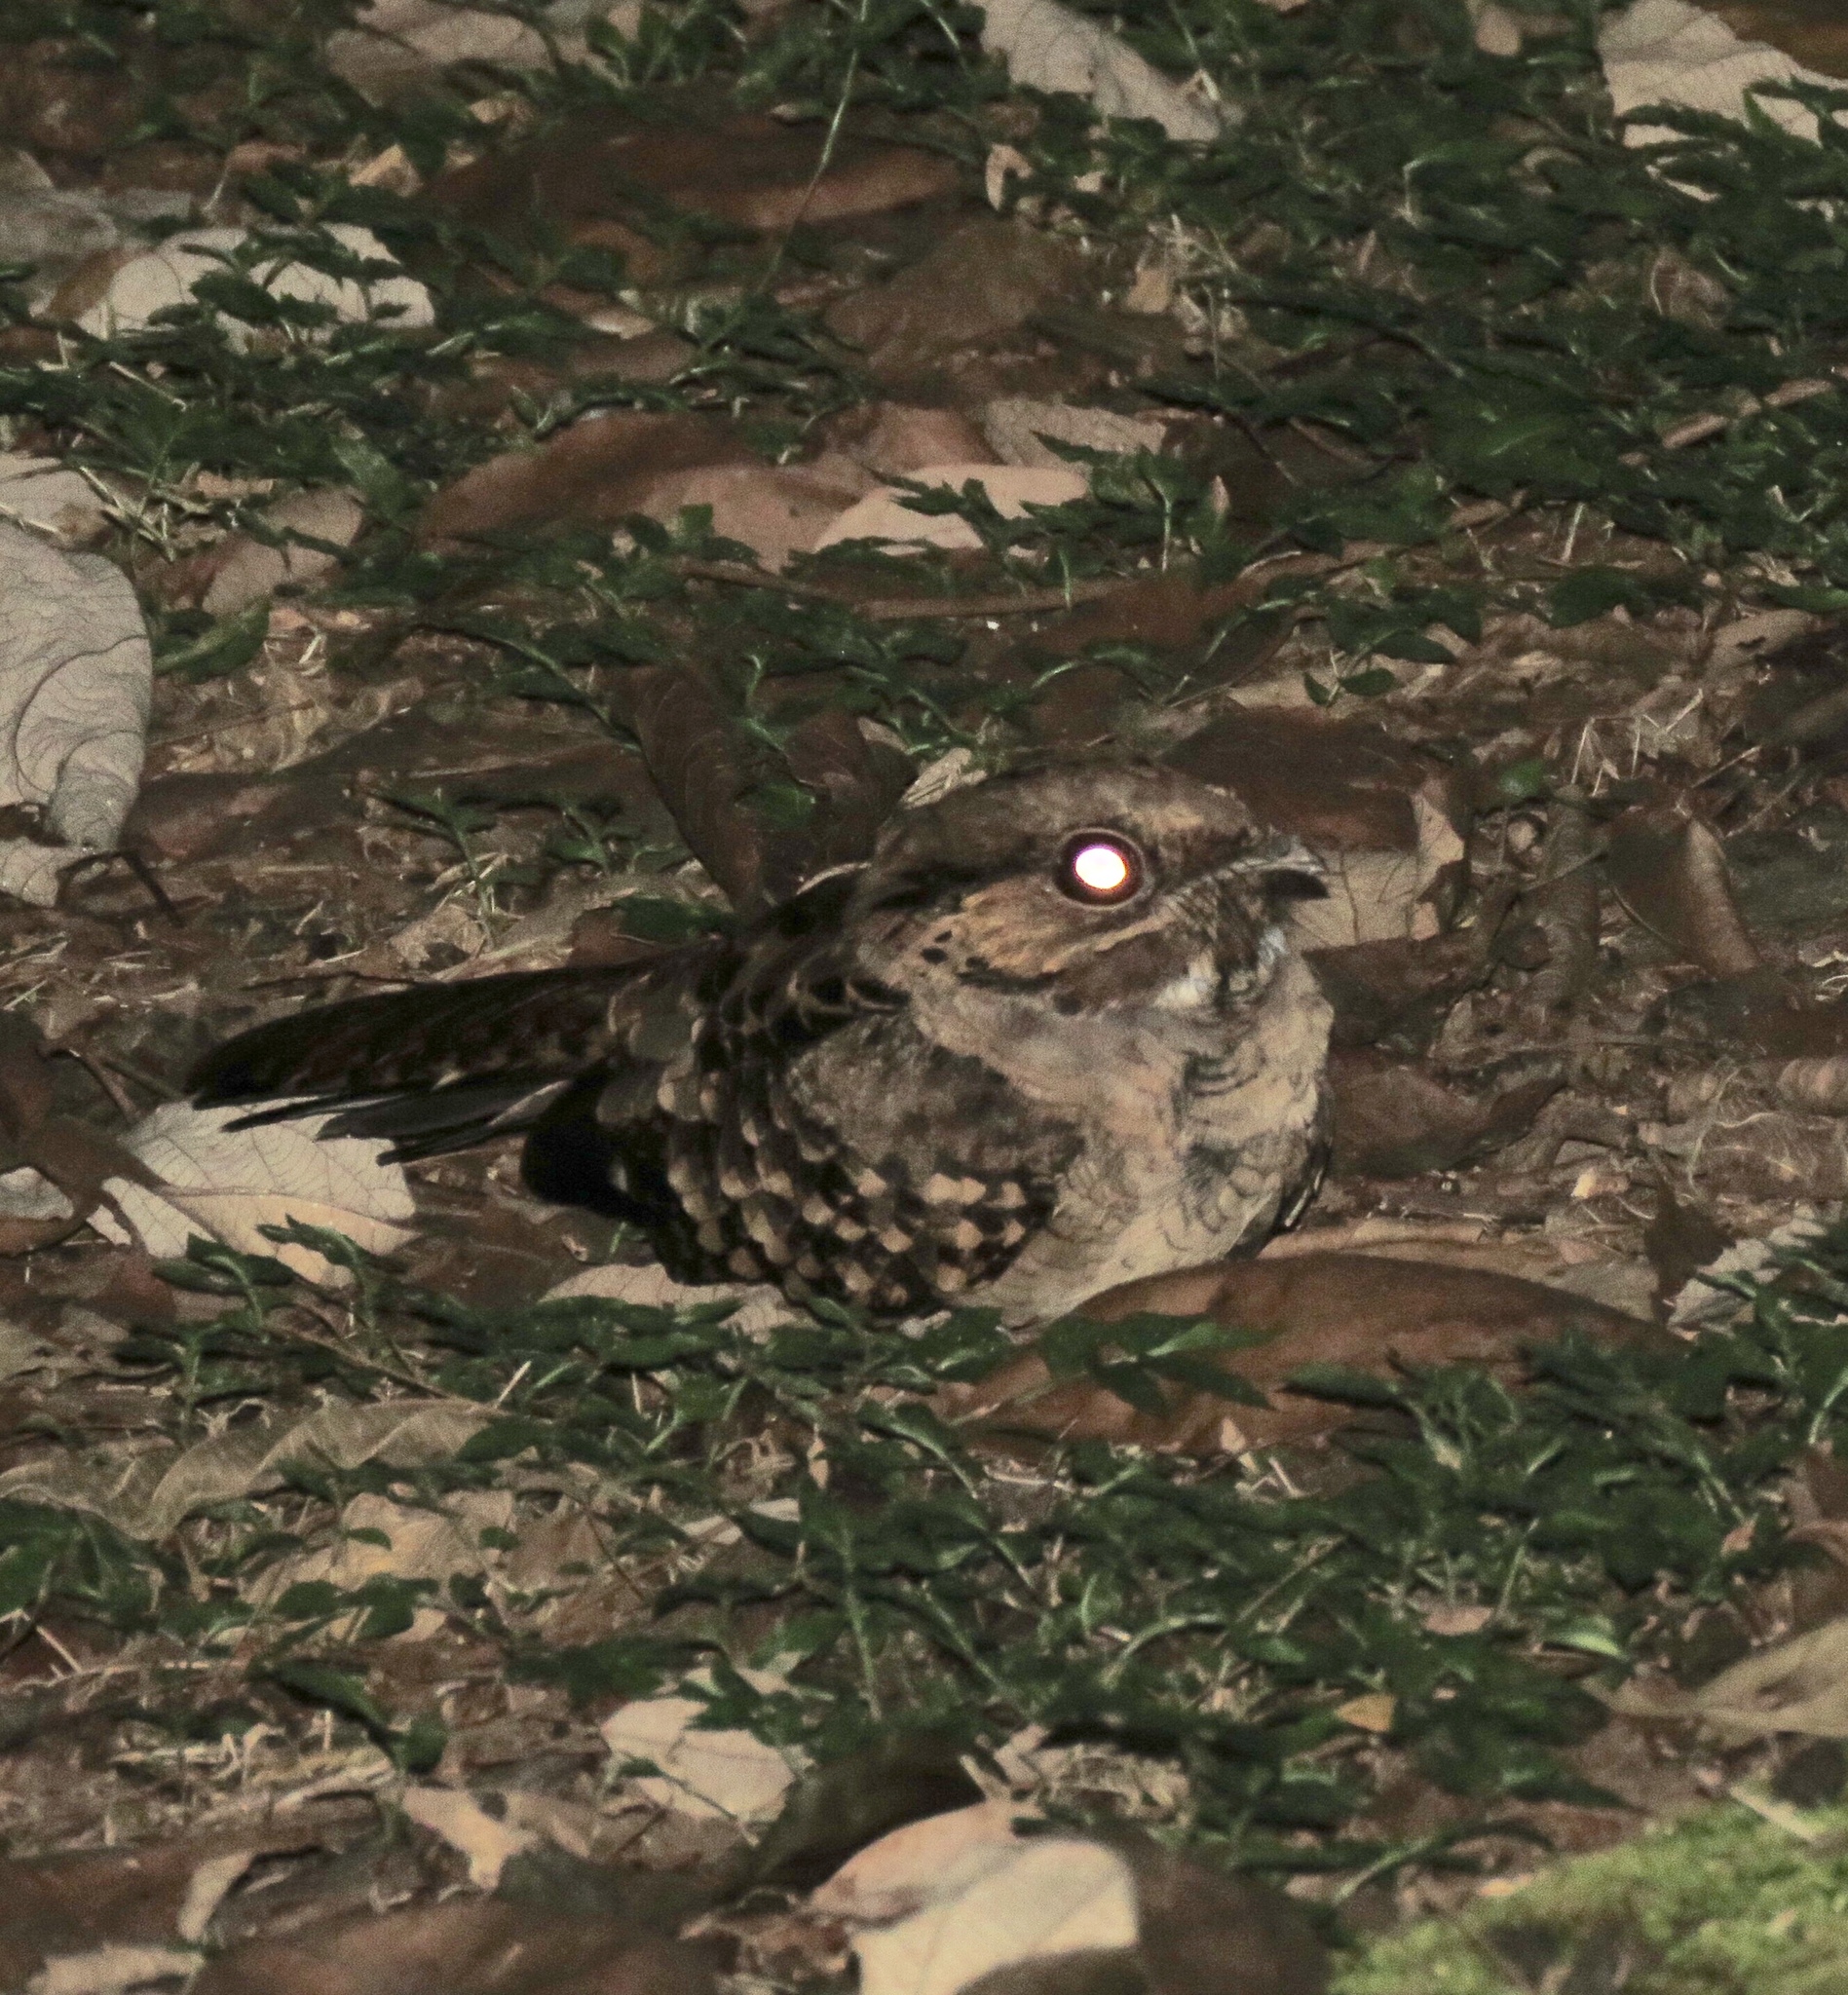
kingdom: Animalia
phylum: Chordata
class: Aves
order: Caprimulgiformes
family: Caprimulgidae
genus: Nyctidromus
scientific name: Nyctidromus albicollis
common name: Pauraque
